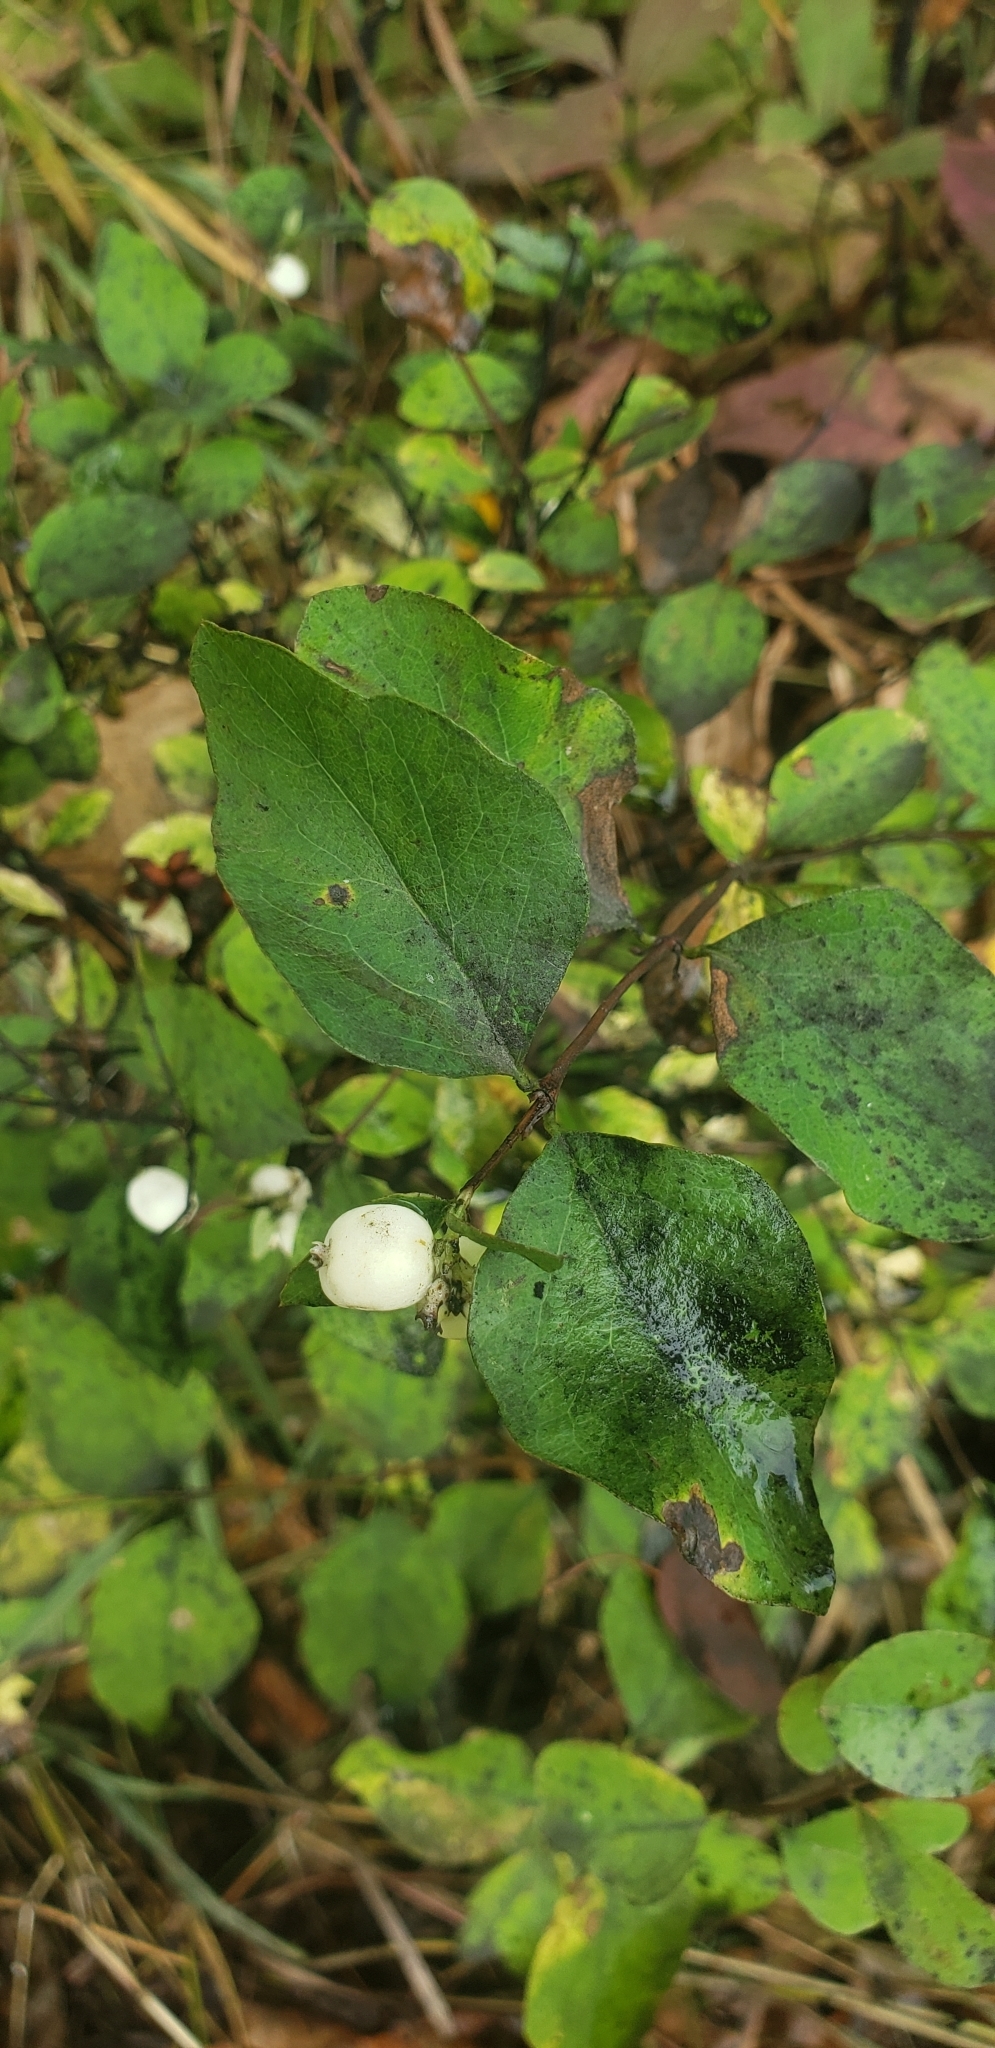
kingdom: Plantae
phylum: Tracheophyta
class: Magnoliopsida
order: Dipsacales
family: Caprifoliaceae
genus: Symphoricarpos
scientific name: Symphoricarpos albus
